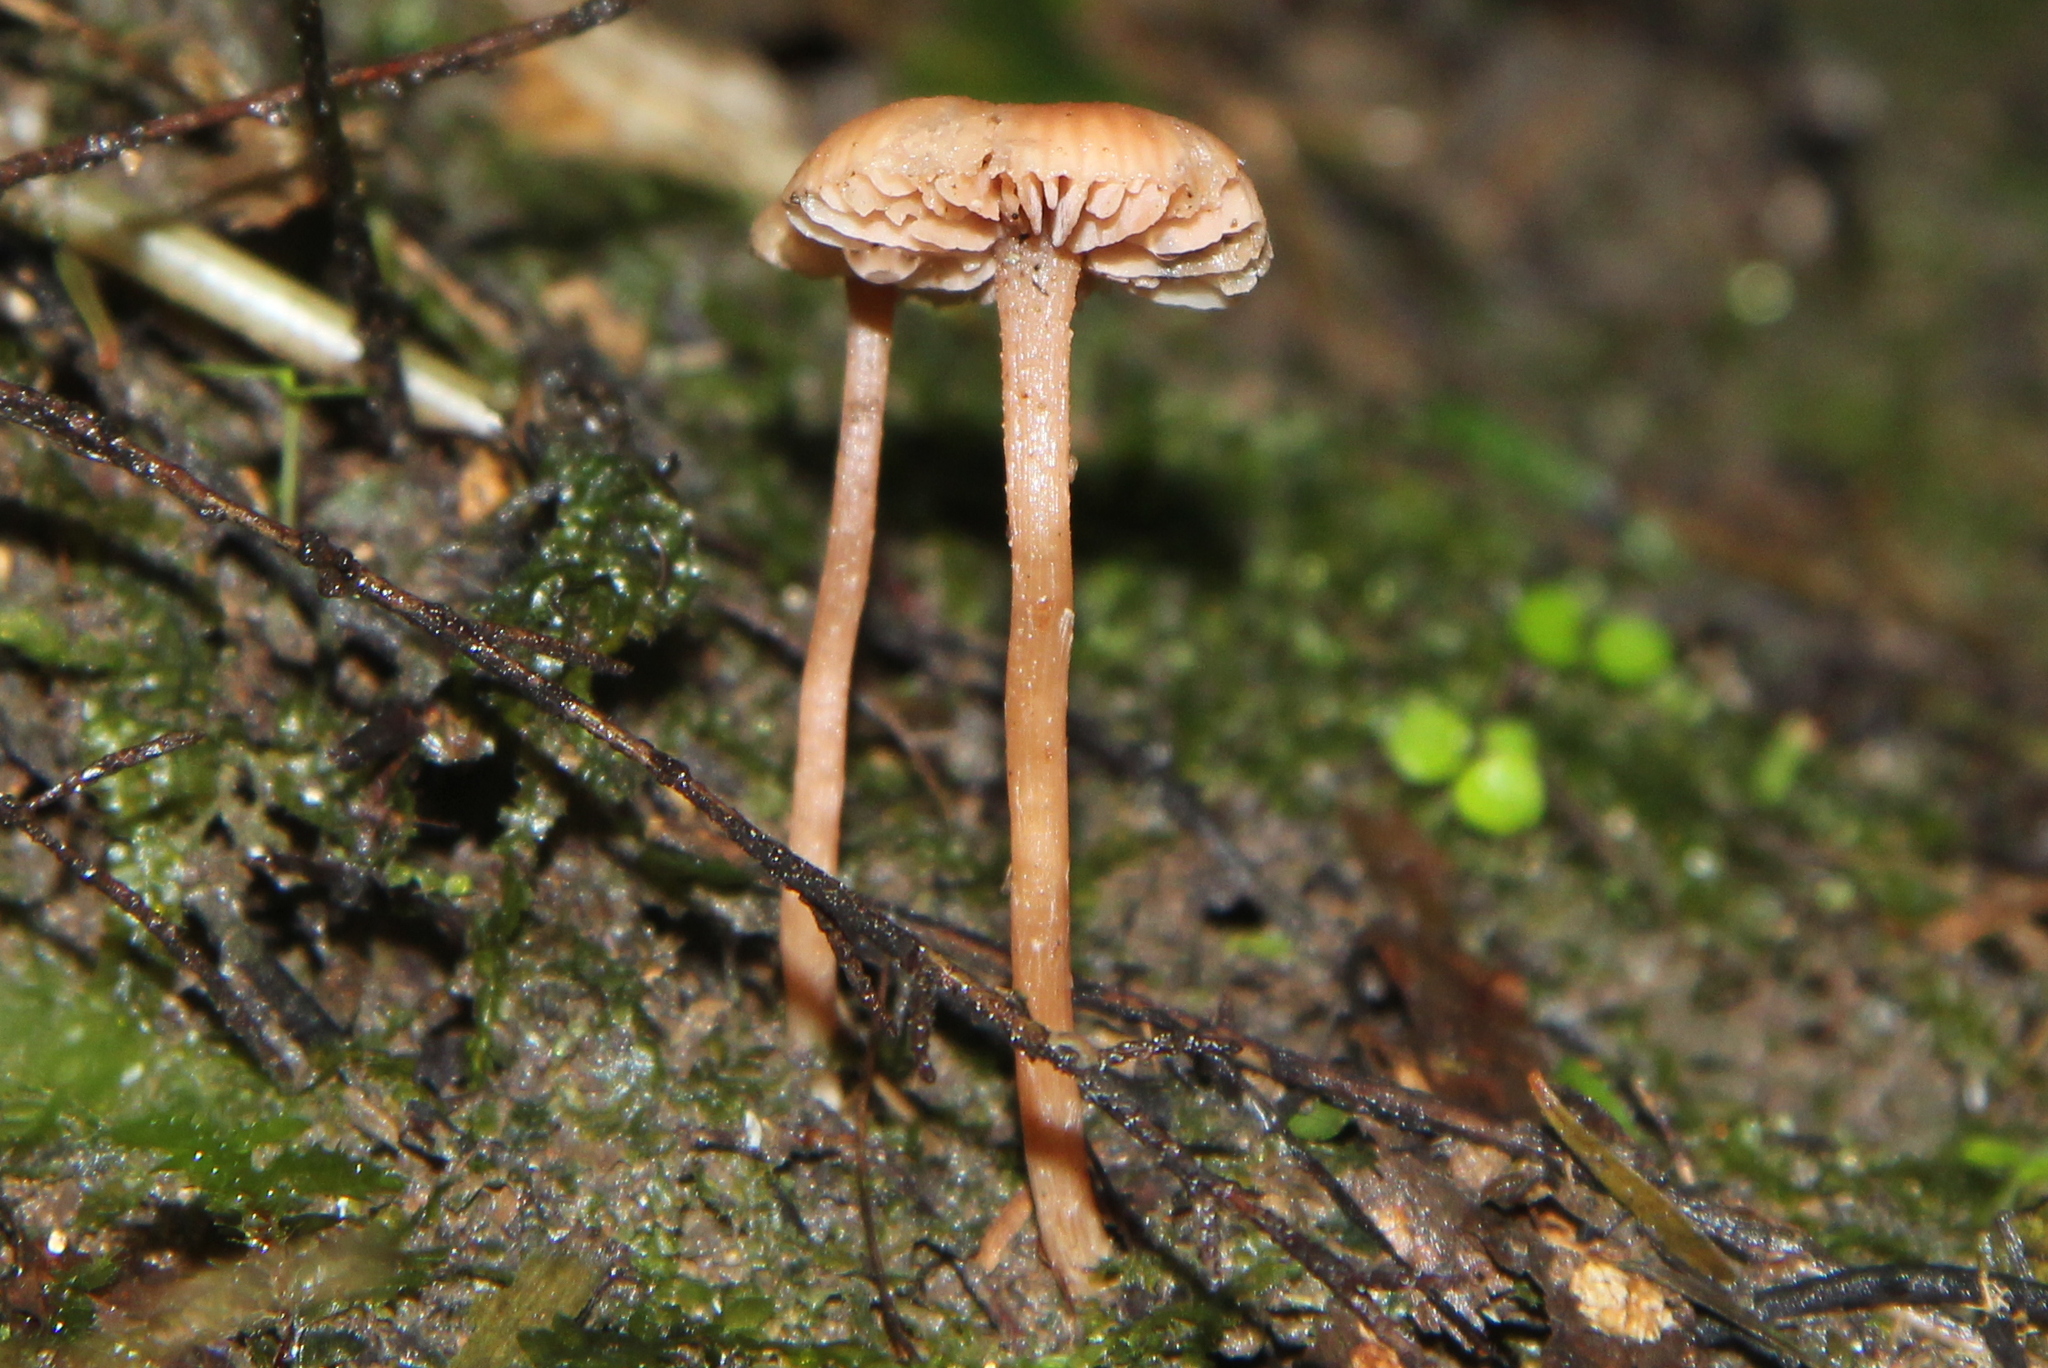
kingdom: Fungi
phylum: Basidiomycota
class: Agaricomycetes
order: Agaricales
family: Hydnangiaceae
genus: Laccaria
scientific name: Laccaria
